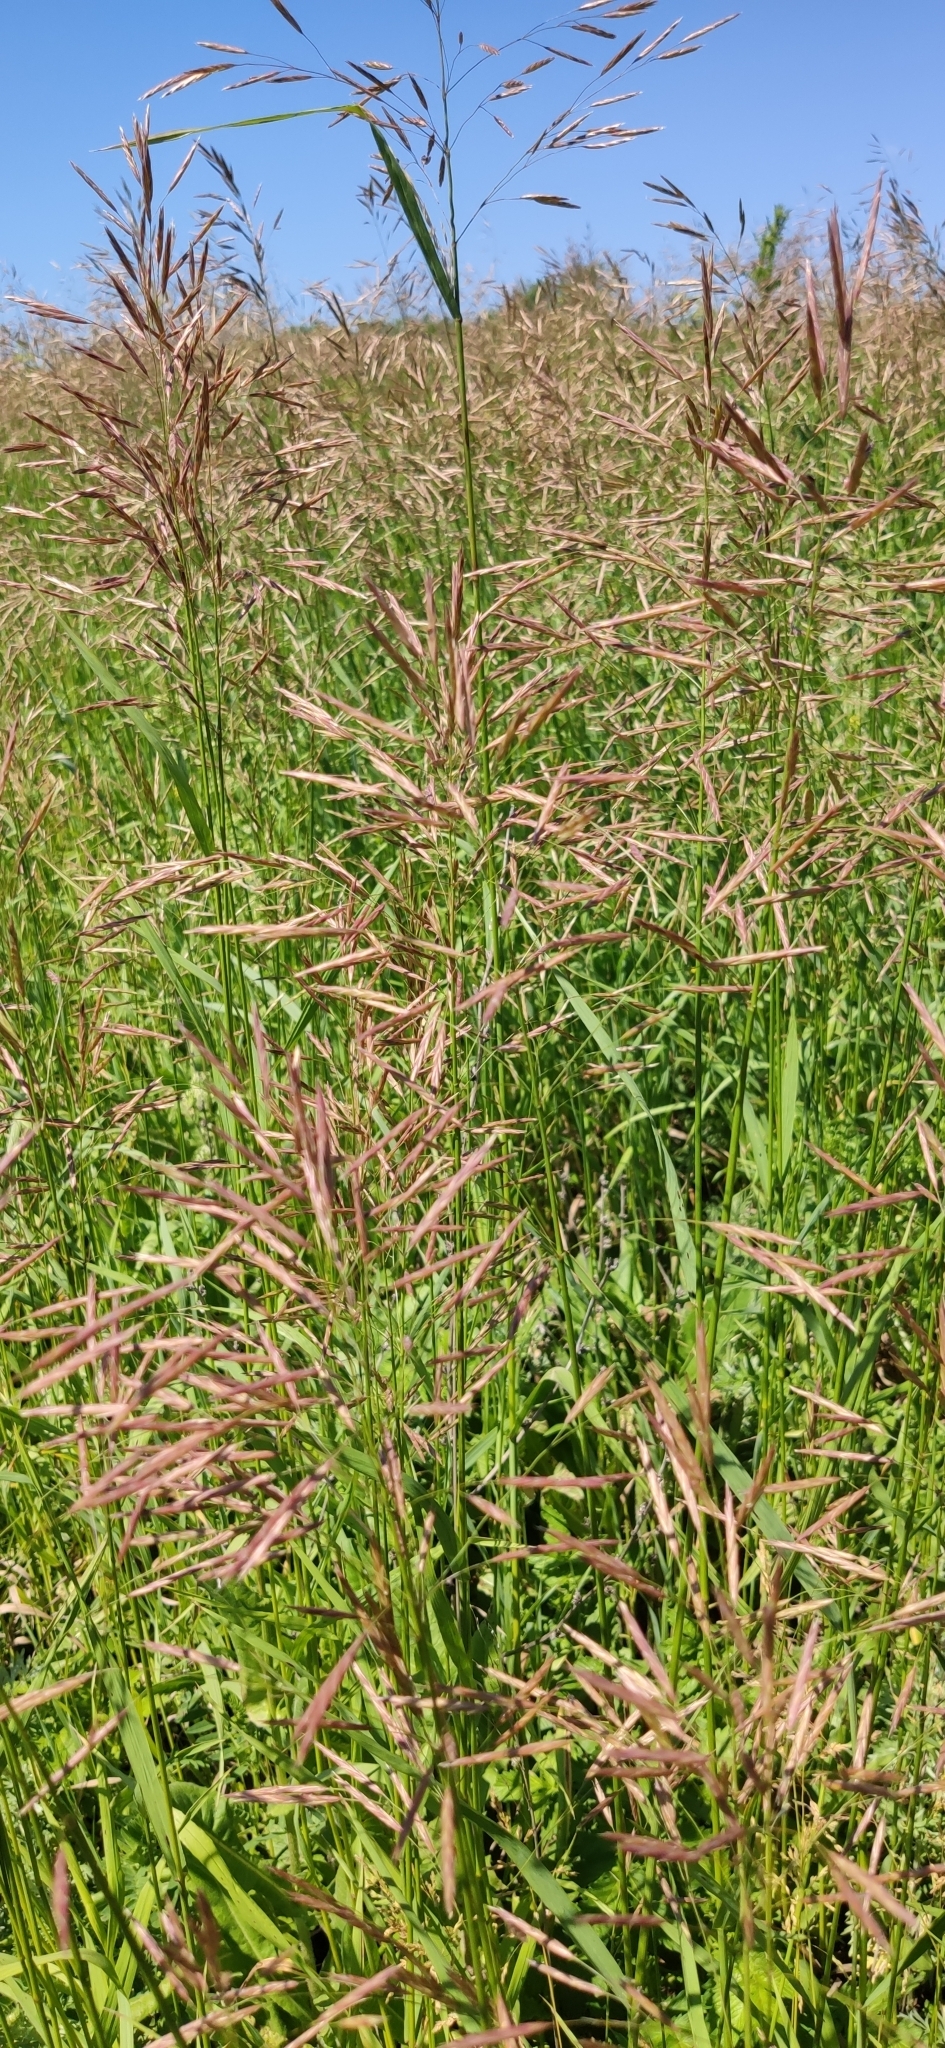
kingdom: Plantae
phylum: Tracheophyta
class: Liliopsida
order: Poales
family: Poaceae
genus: Bromus
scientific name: Bromus inermis
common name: Smooth brome
